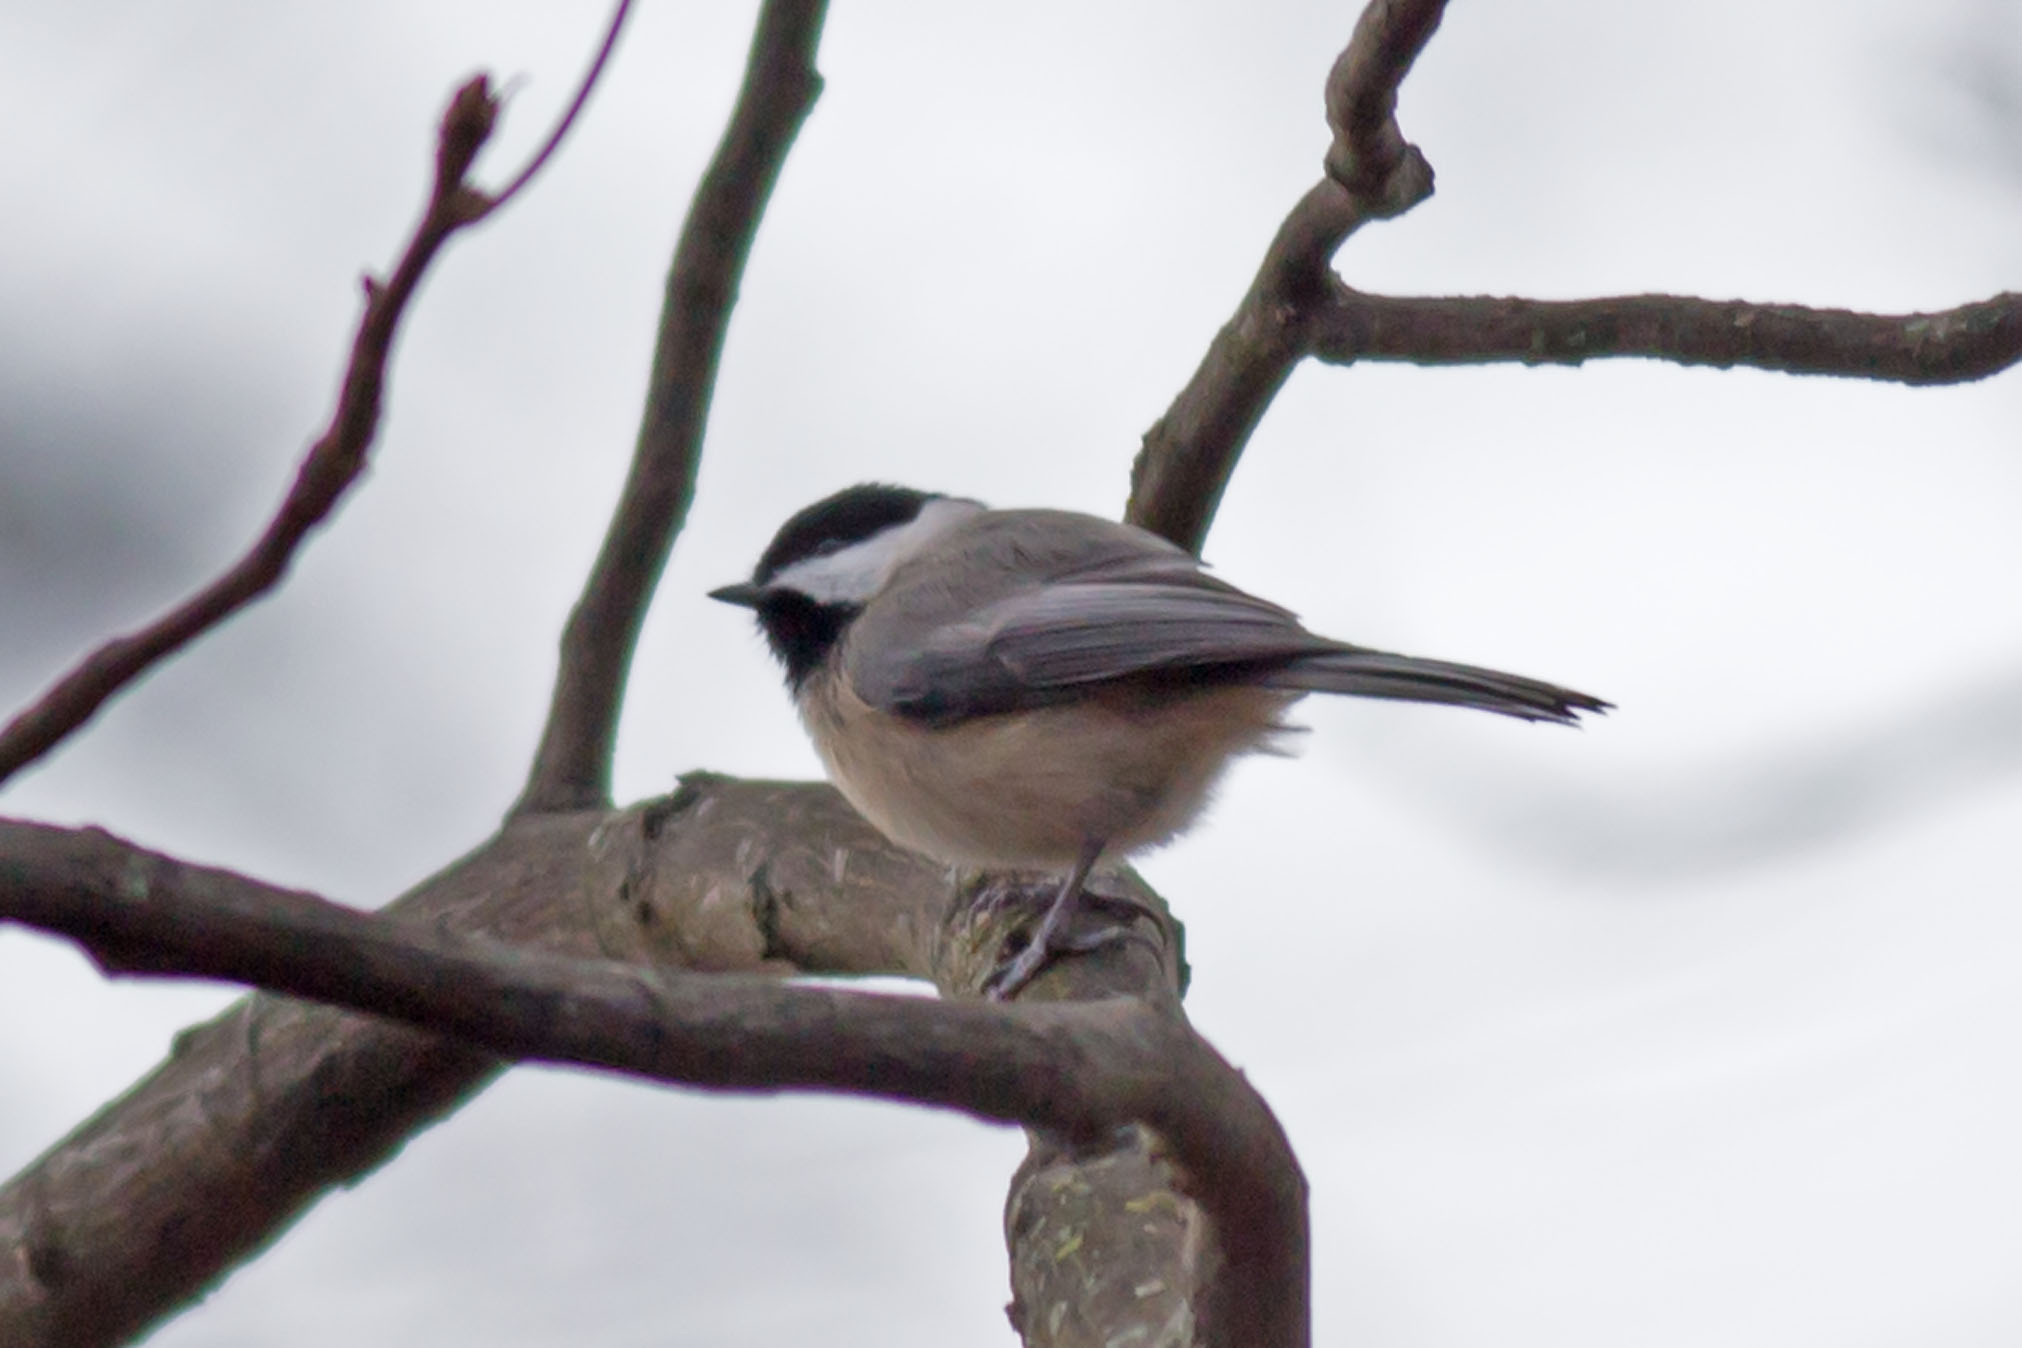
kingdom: Animalia
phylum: Chordata
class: Aves
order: Passeriformes
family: Paridae
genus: Poecile
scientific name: Poecile carolinensis
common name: Carolina chickadee
